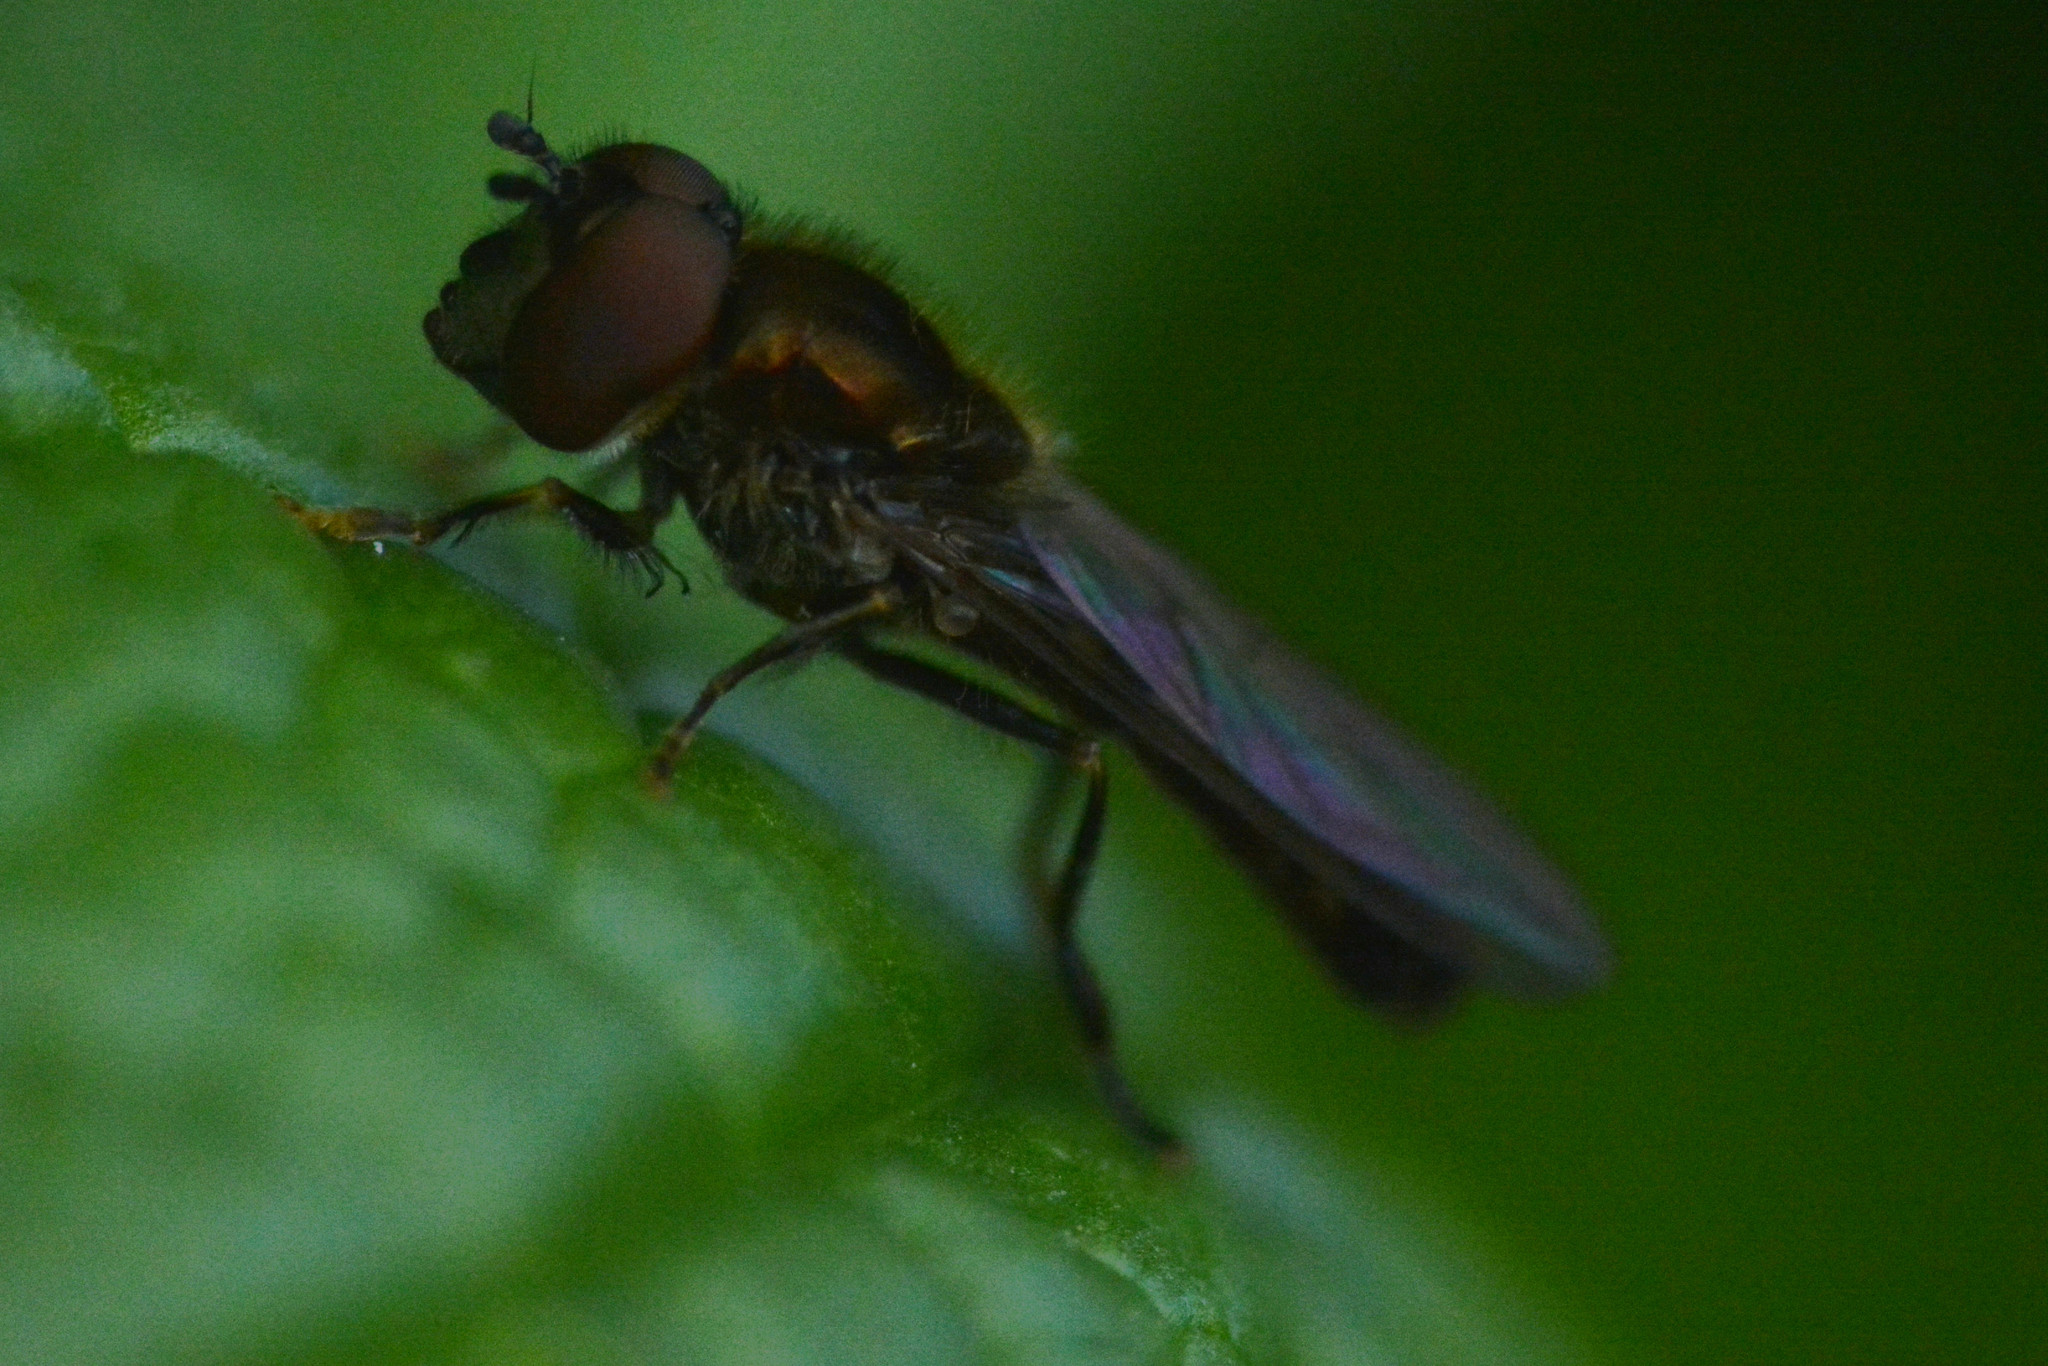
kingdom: Animalia
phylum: Arthropoda
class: Insecta
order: Diptera
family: Syrphidae
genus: Platycheirus
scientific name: Platycheirus albimanus
